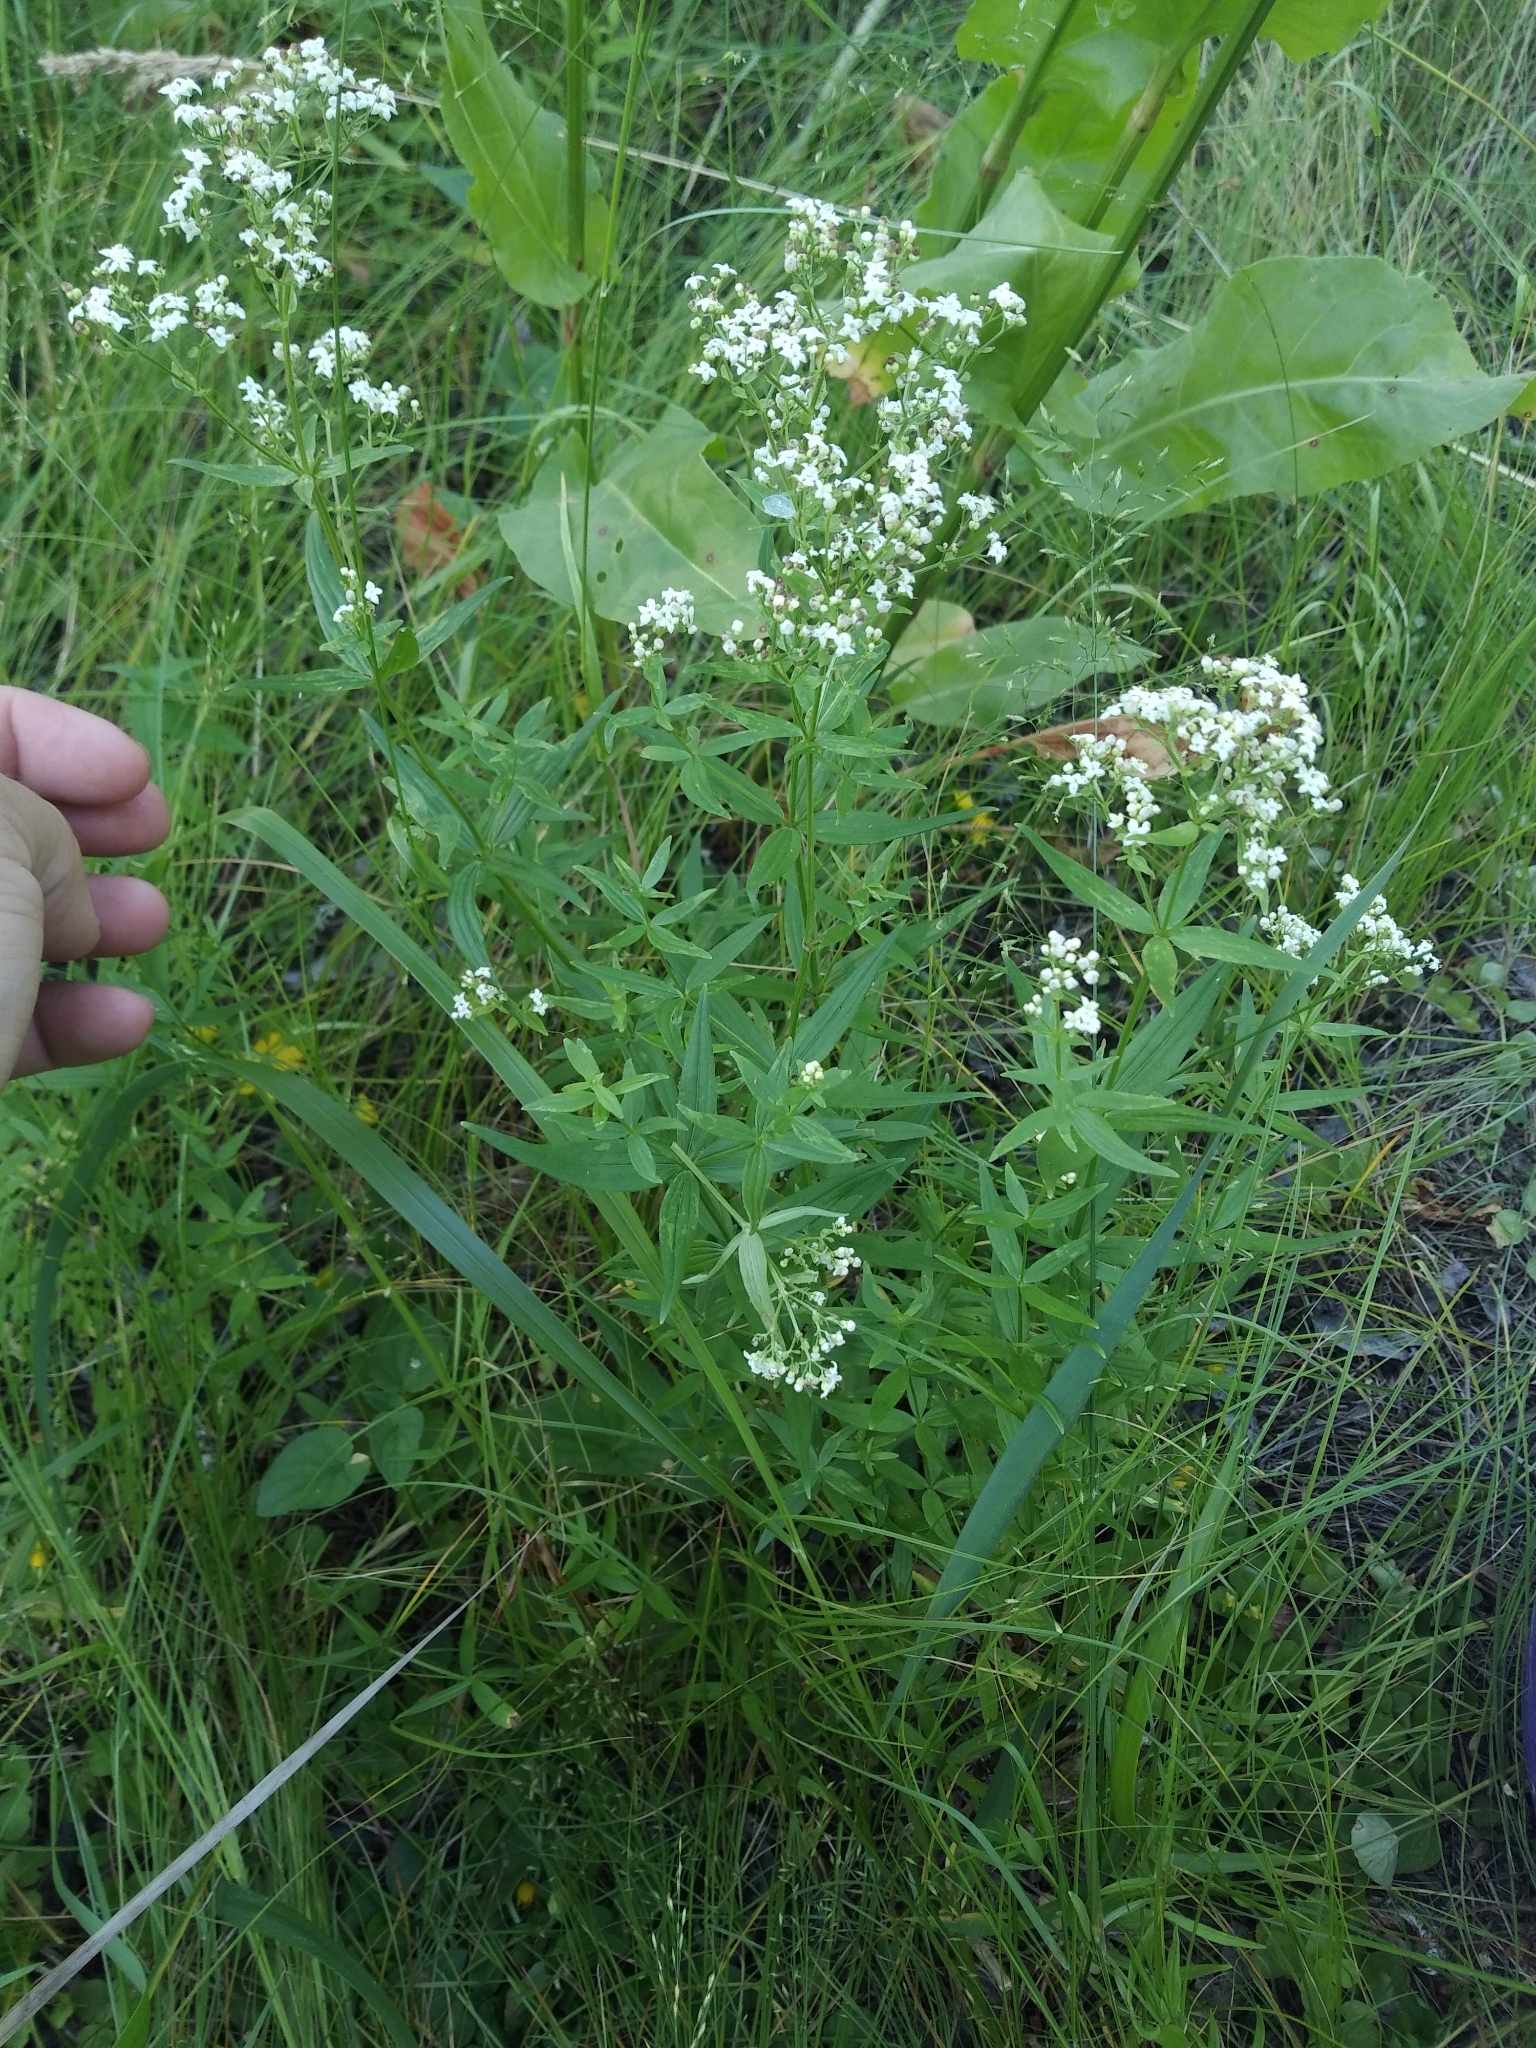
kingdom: Plantae
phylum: Tracheophyta
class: Magnoliopsida
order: Gentianales
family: Rubiaceae
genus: Galium
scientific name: Galium boreale
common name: Northern bedstraw
